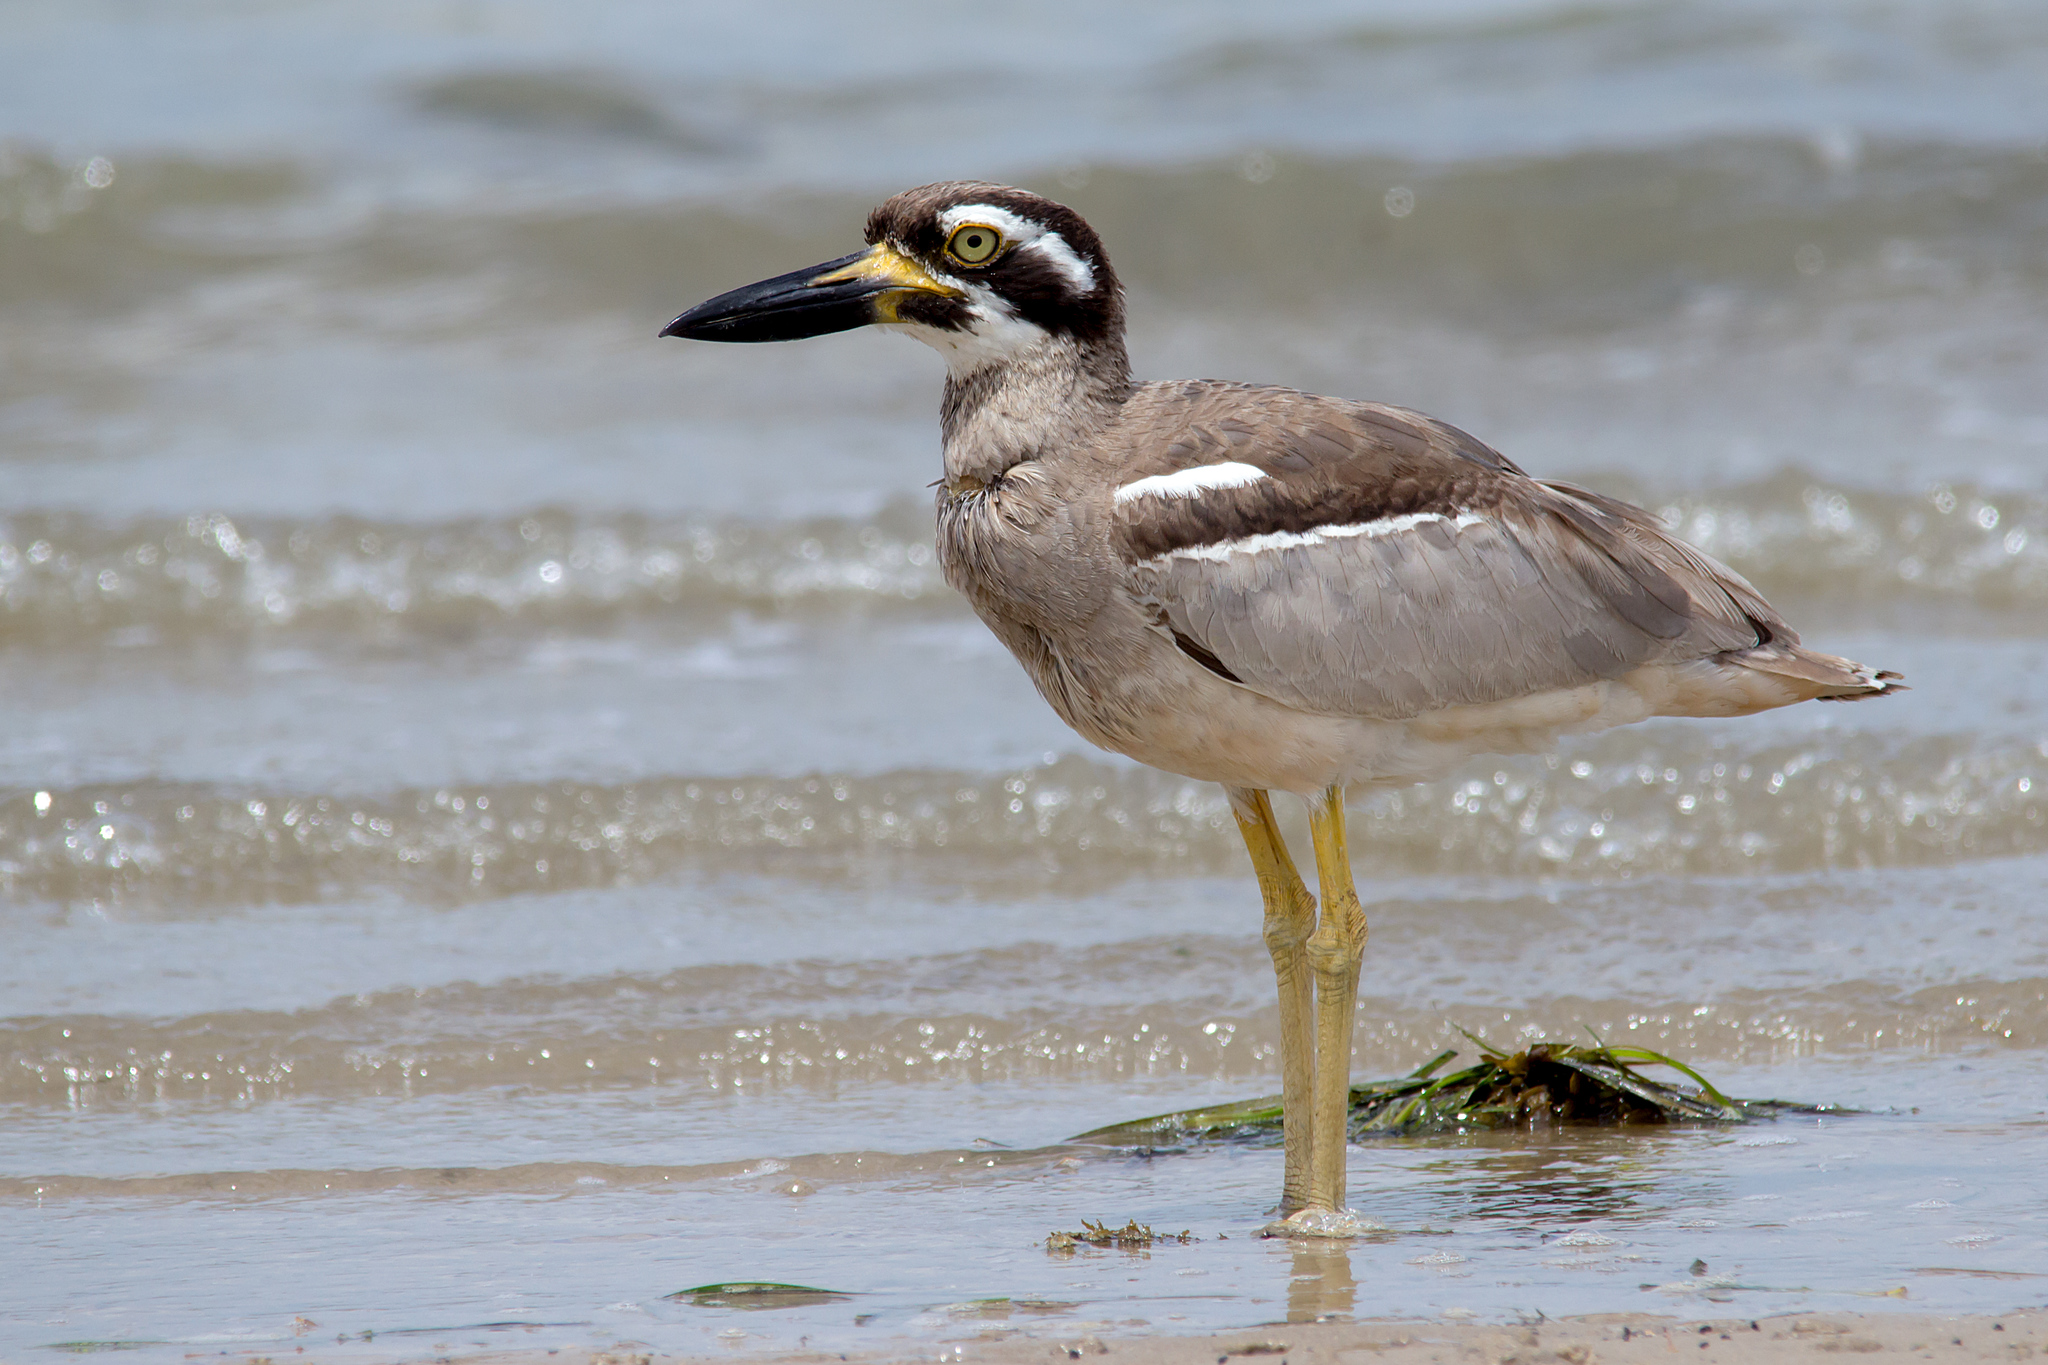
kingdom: Animalia
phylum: Chordata
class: Aves
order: Charadriiformes
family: Burhinidae
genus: Esacus
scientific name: Esacus magnirostris
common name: Beach stone-curlew
